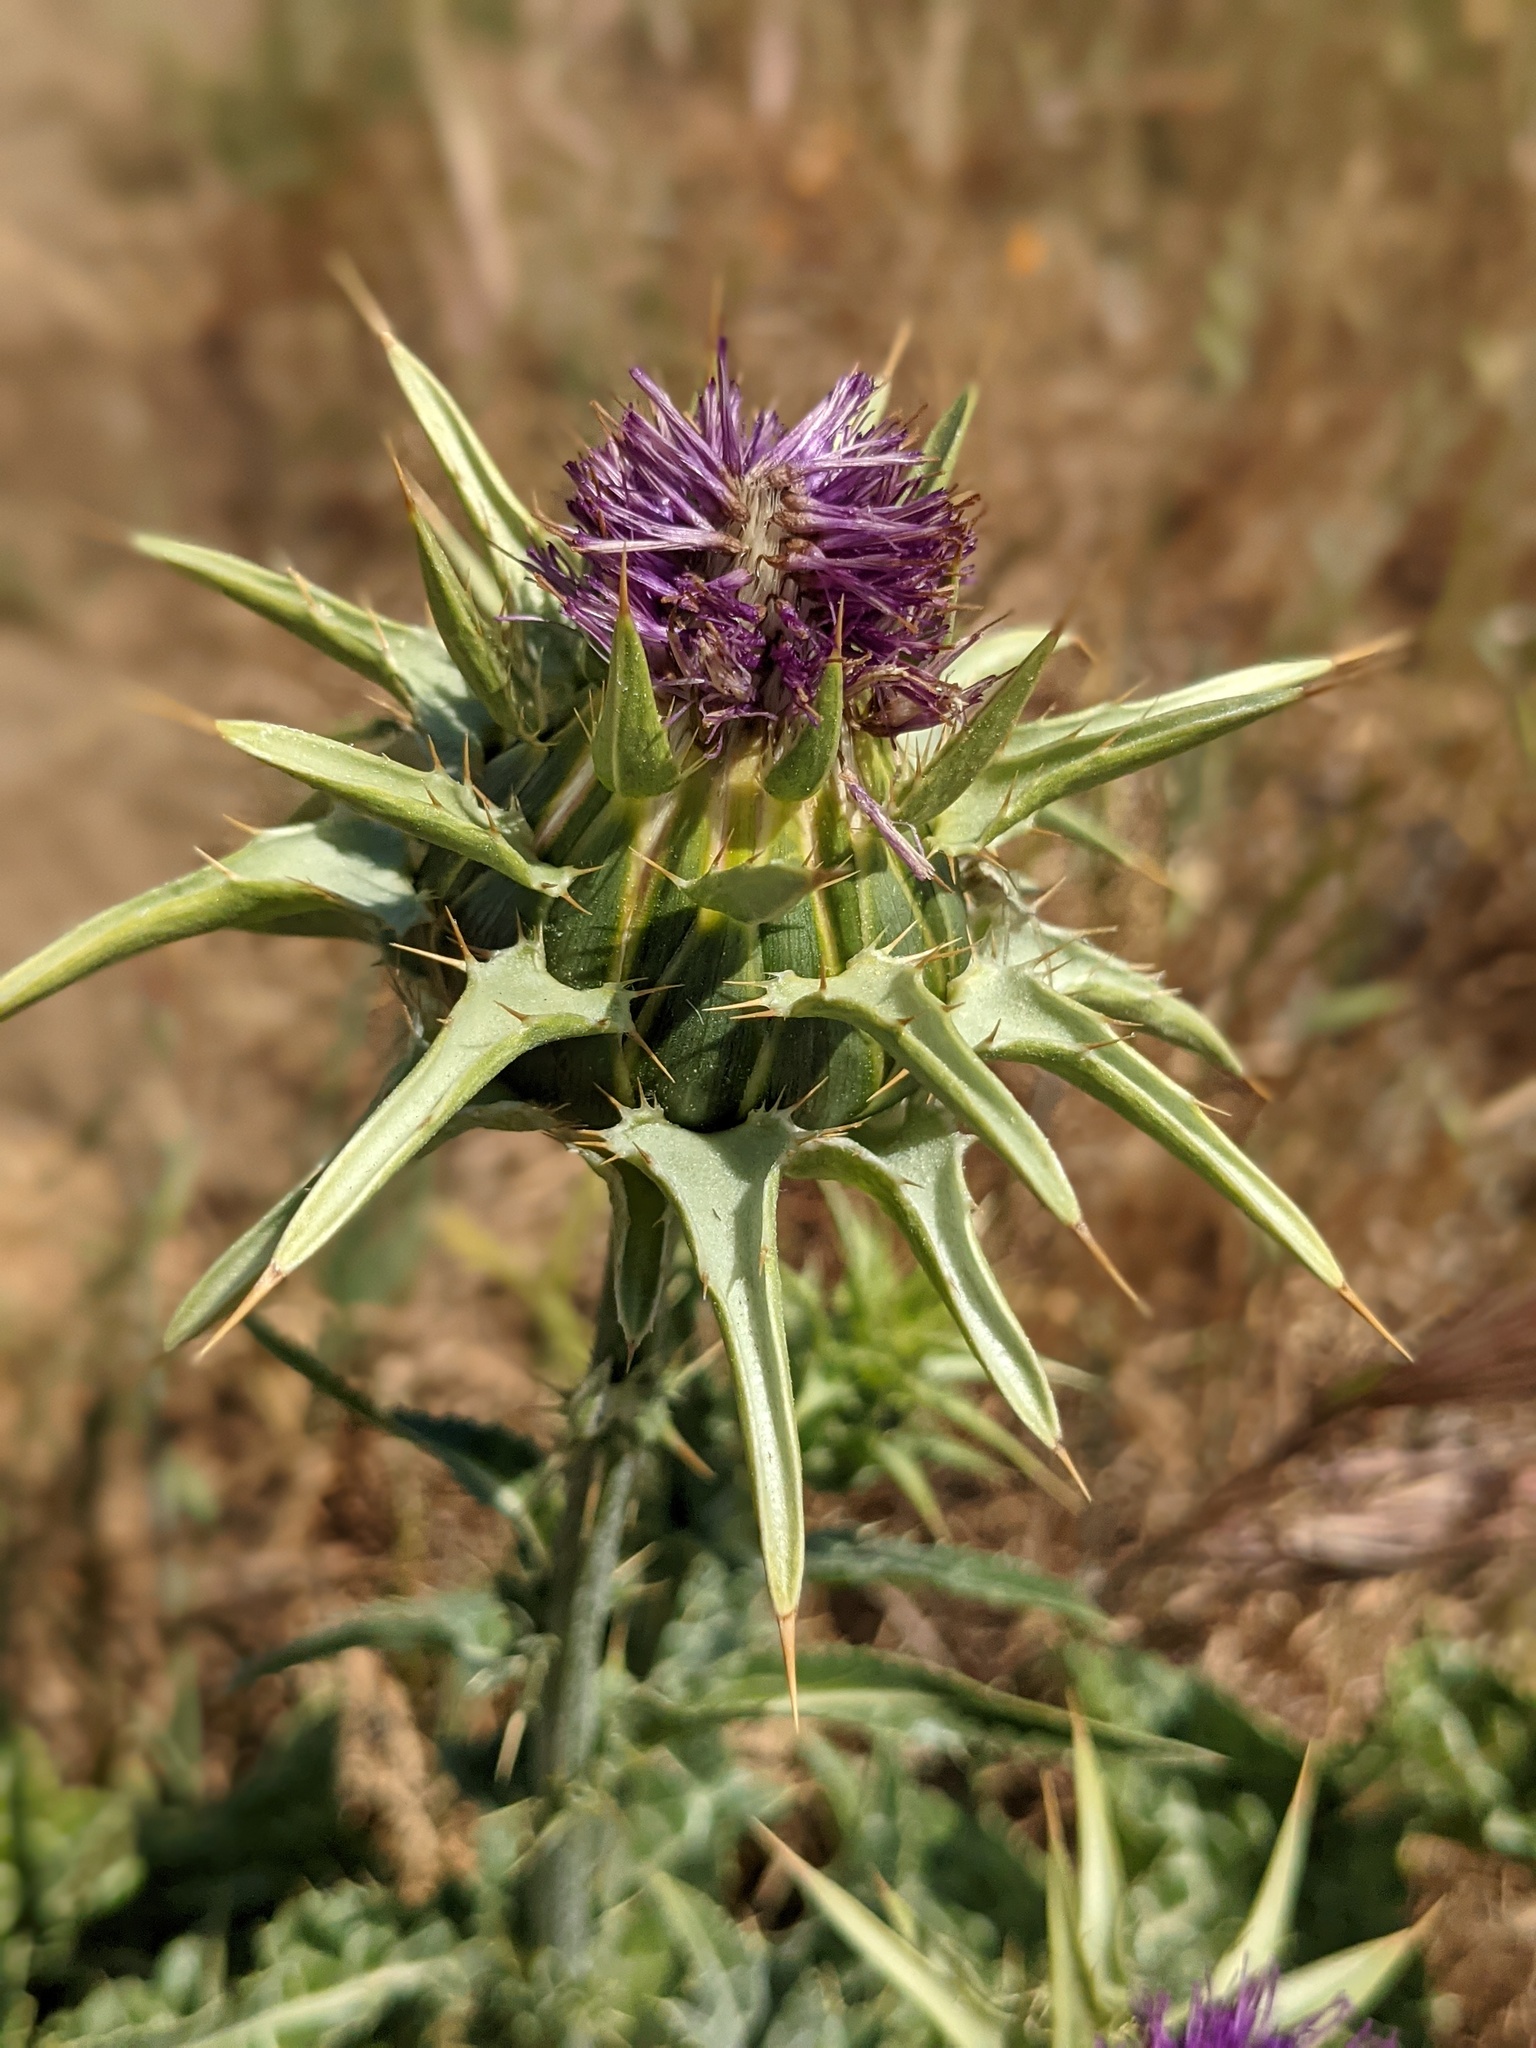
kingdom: Plantae
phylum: Tracheophyta
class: Magnoliopsida
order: Asterales
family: Asteraceae
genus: Silybum
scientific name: Silybum marianum
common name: Milk thistle
